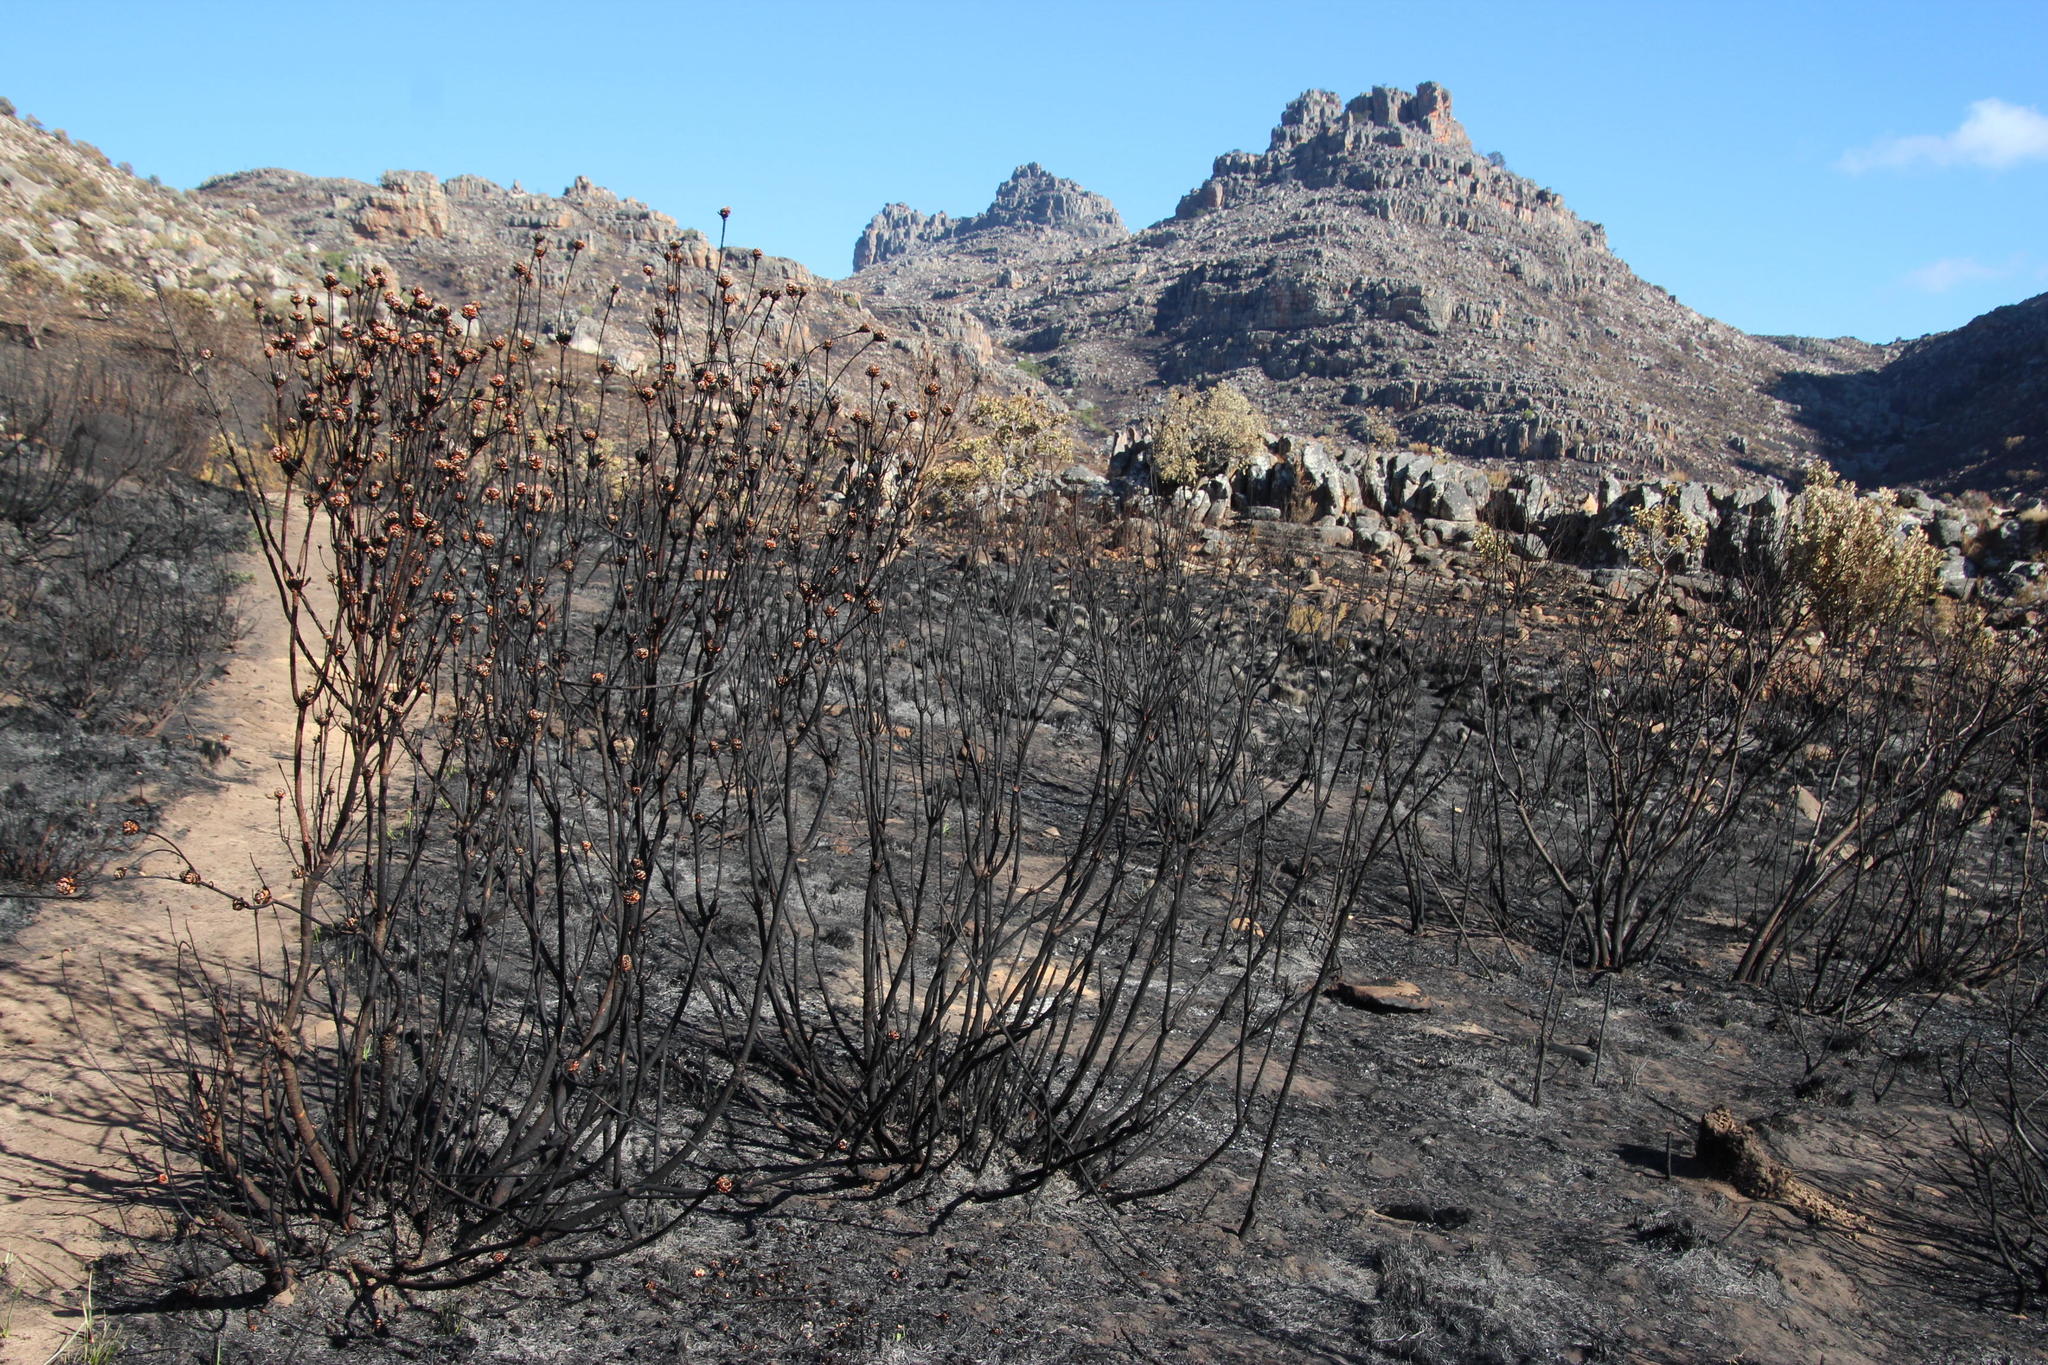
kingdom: Plantae
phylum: Tracheophyta
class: Magnoliopsida
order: Proteales
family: Proteaceae
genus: Leucadendron
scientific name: Leucadendron salignum
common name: Common sunshine conebush
